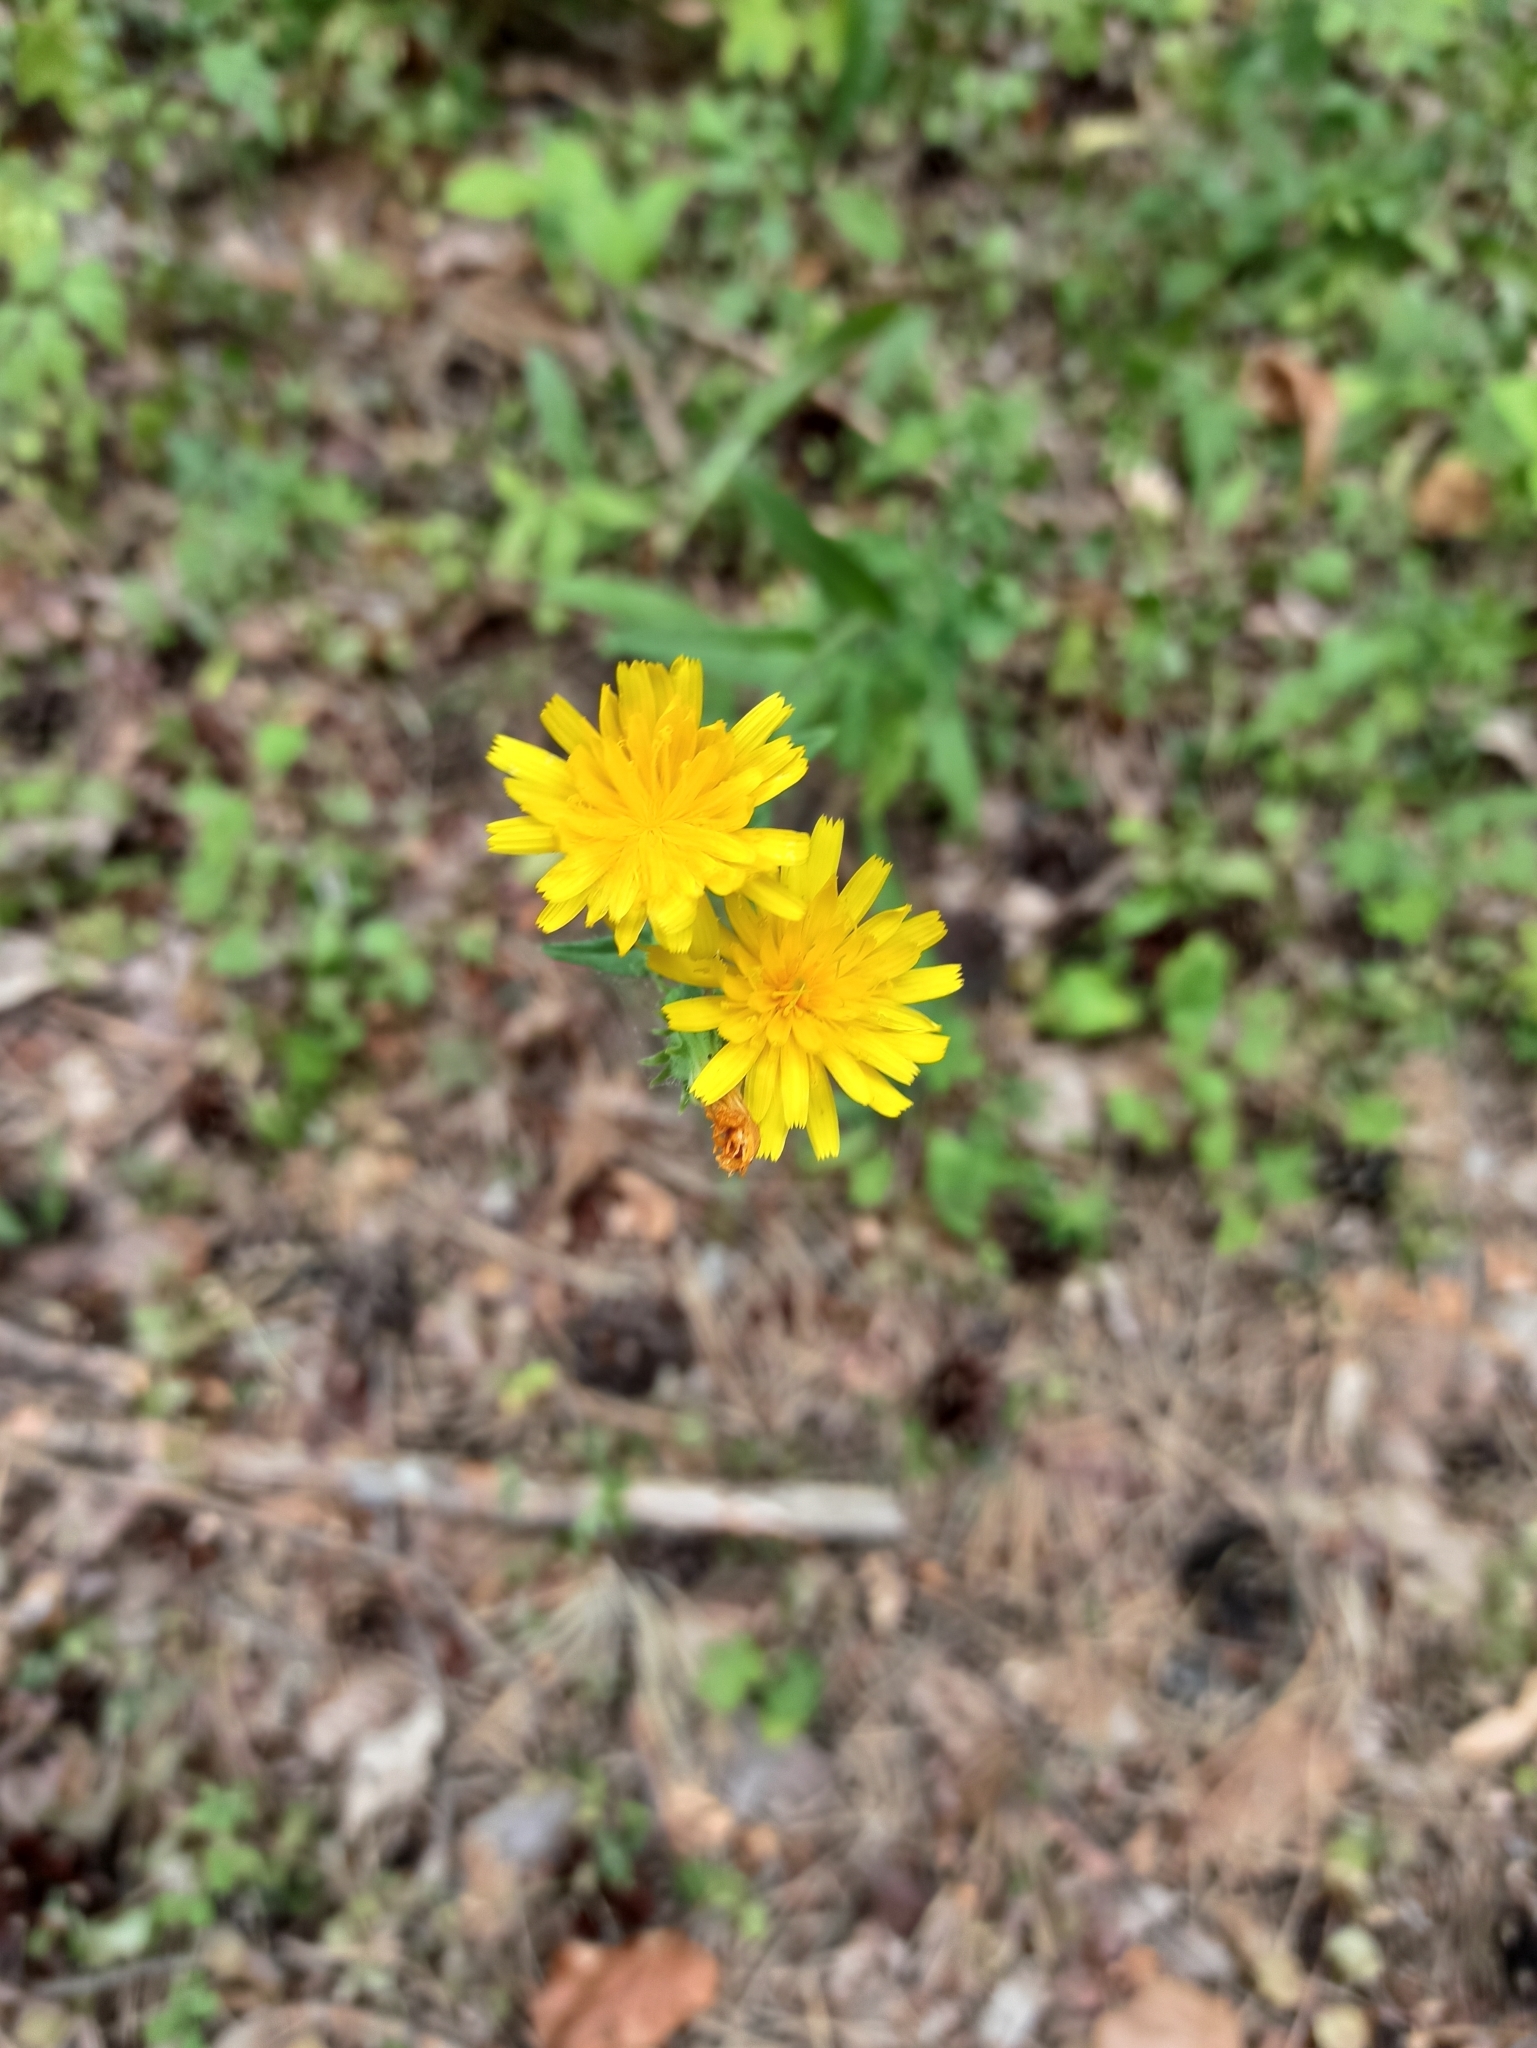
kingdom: Plantae
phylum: Tracheophyta
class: Magnoliopsida
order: Asterales
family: Asteraceae
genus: Picris
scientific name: Picris hieracioides
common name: Hawkweed oxtongue
